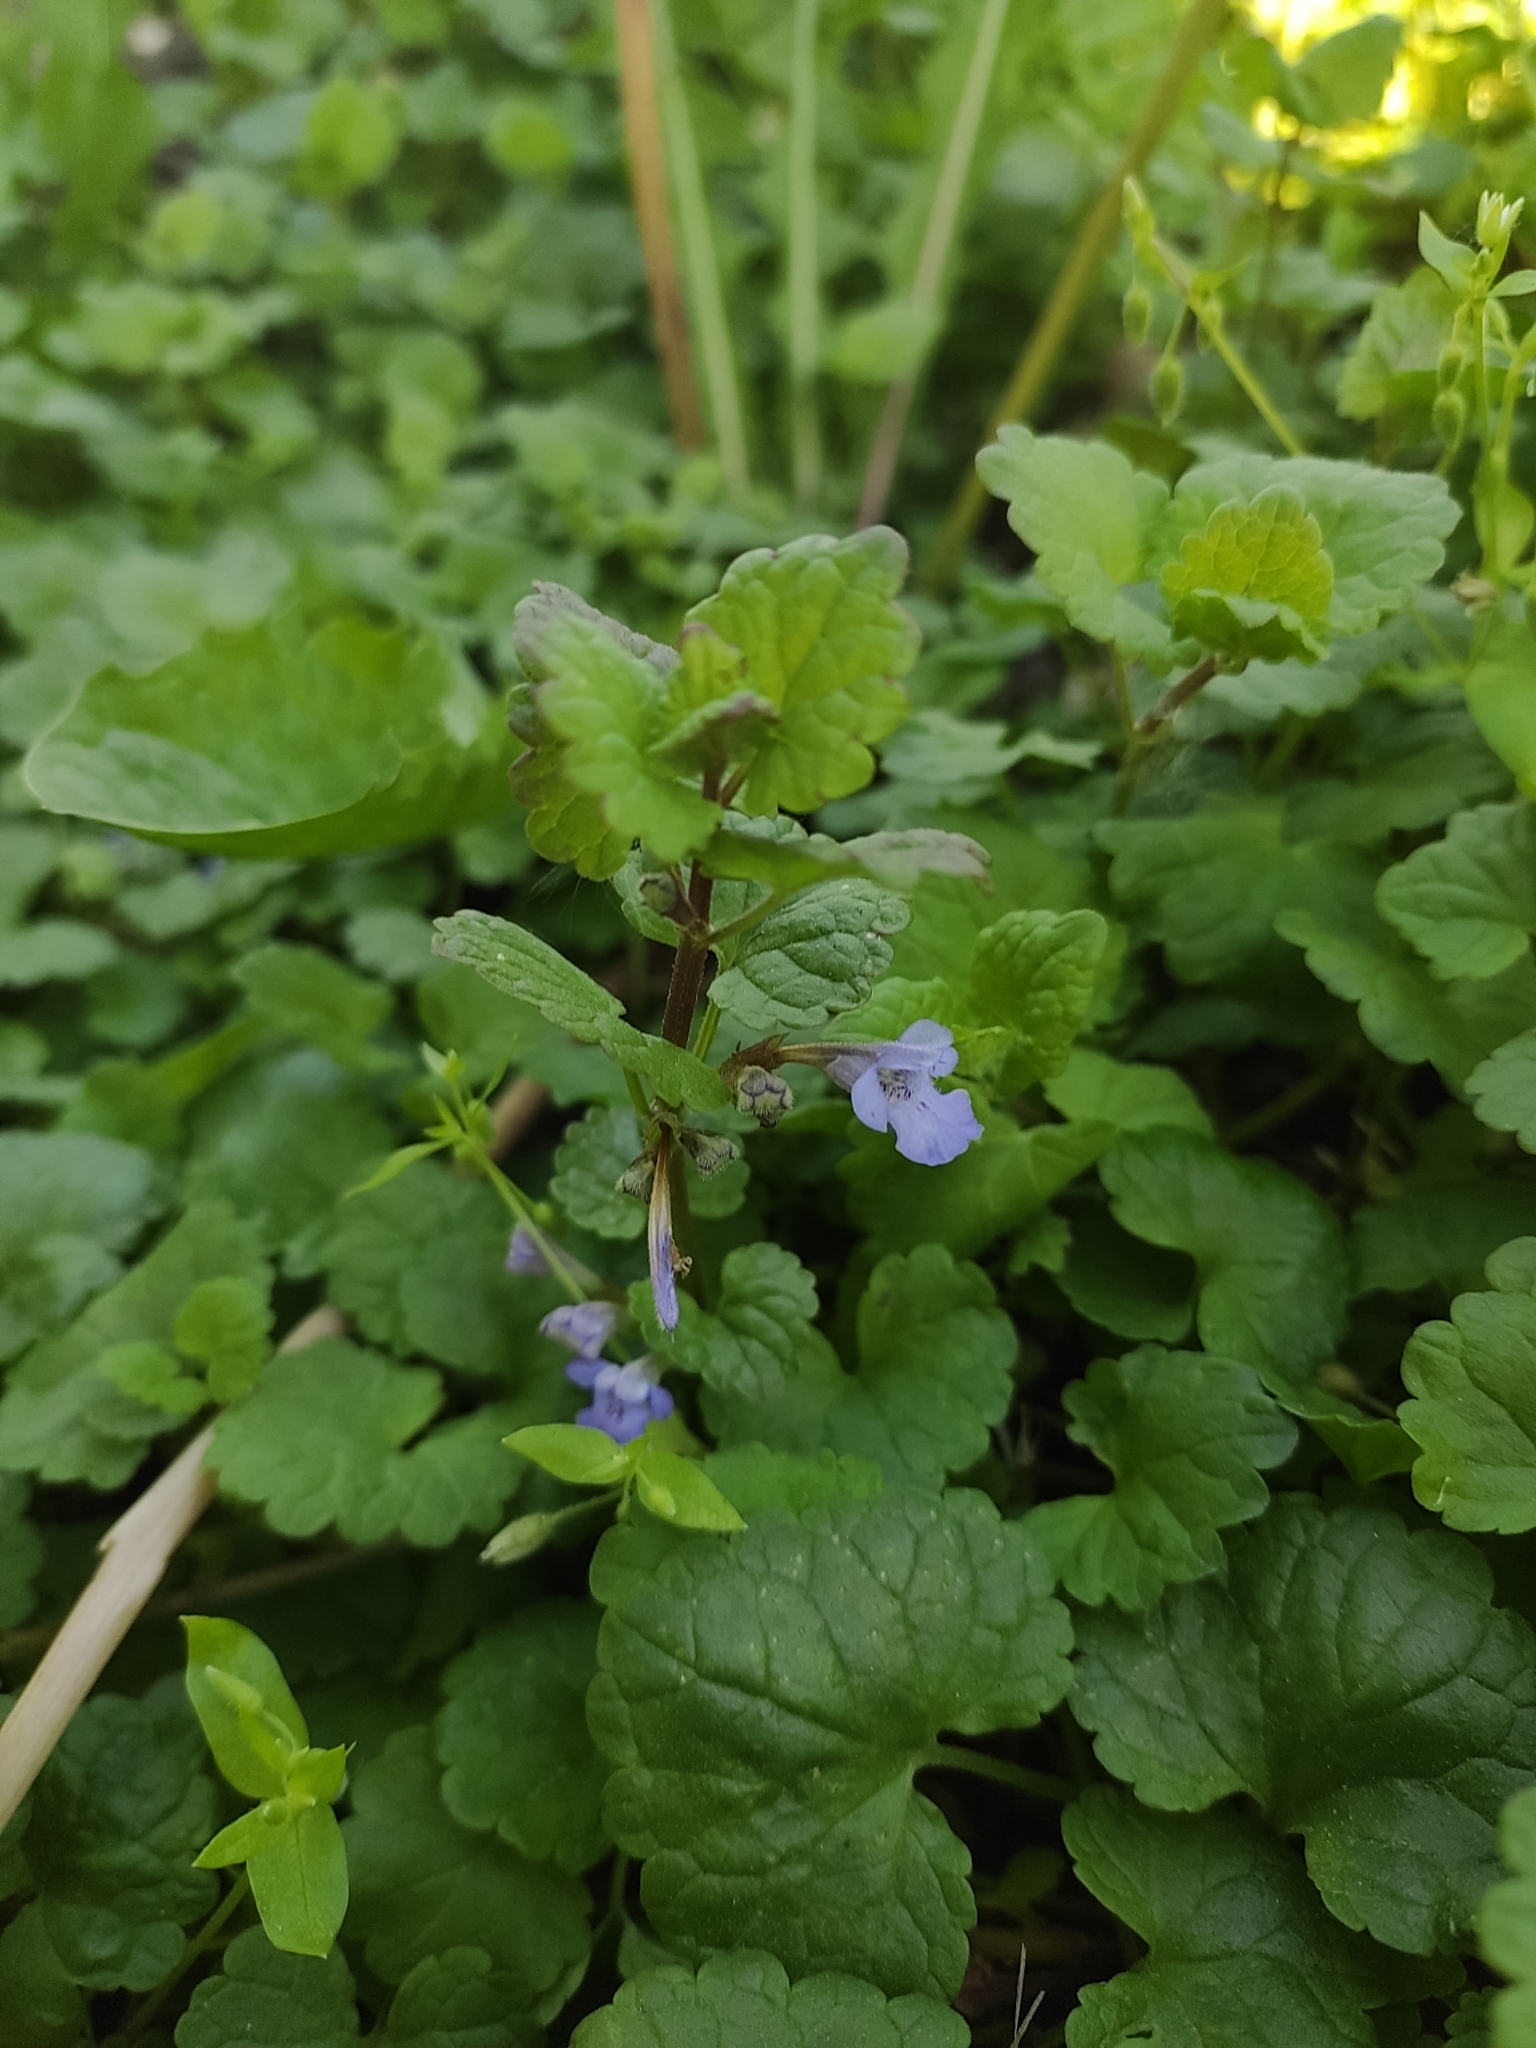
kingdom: Plantae
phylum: Tracheophyta
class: Magnoliopsida
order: Lamiales
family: Lamiaceae
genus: Glechoma
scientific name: Glechoma hederacea
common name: Ground ivy
